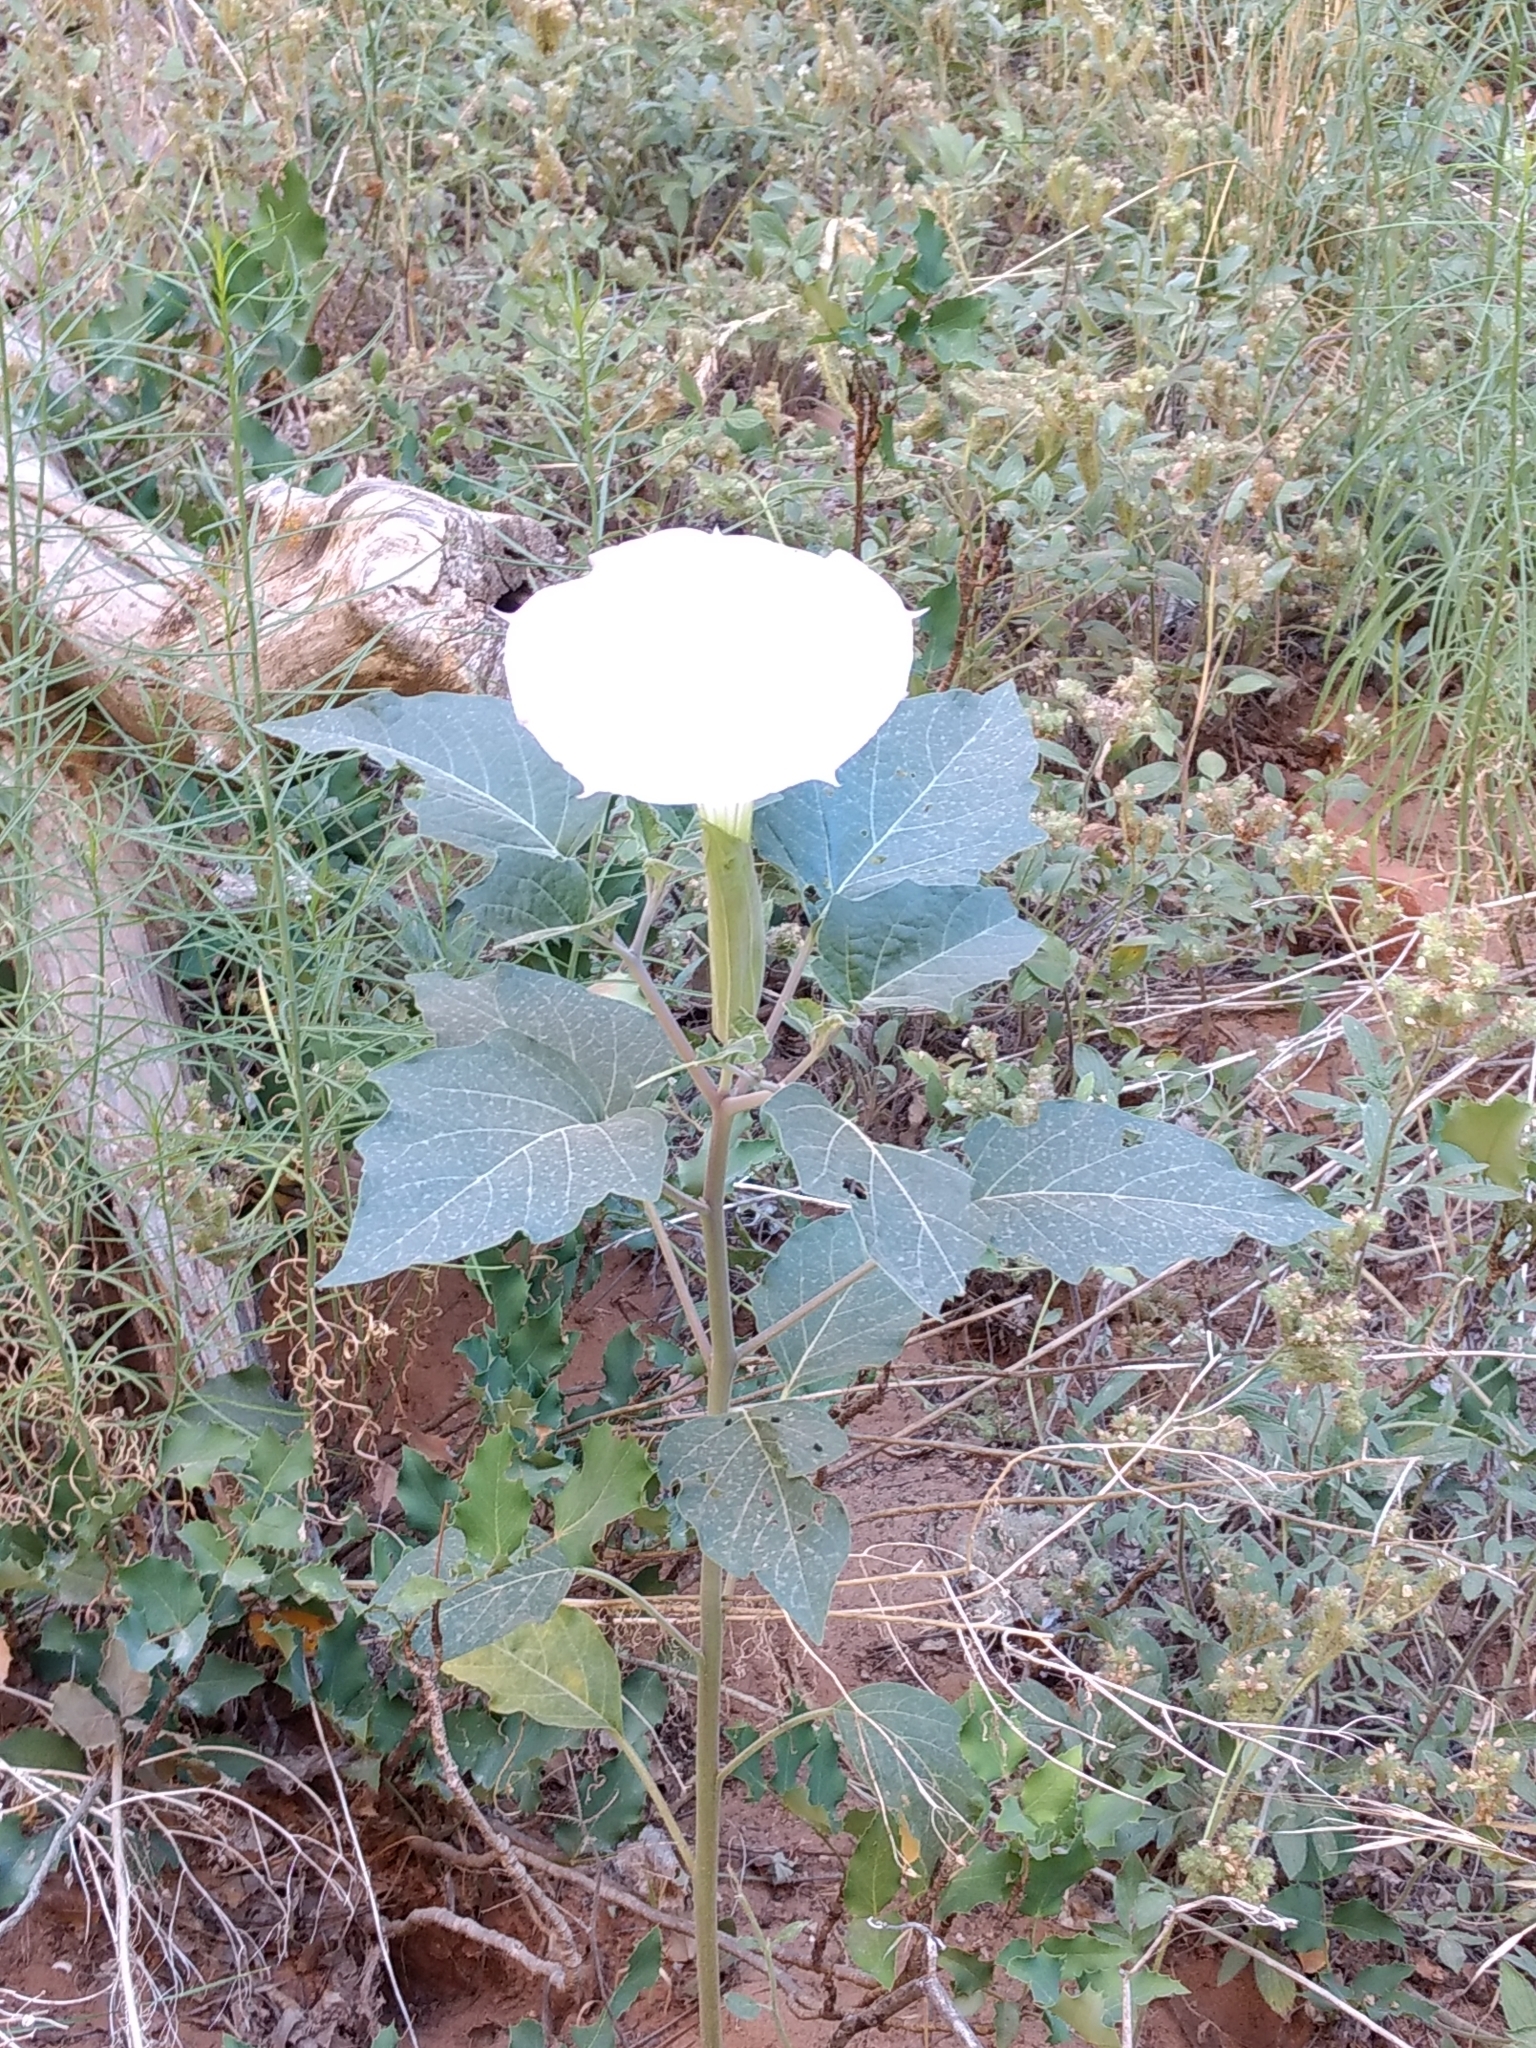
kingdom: Plantae
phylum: Tracheophyta
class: Magnoliopsida
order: Solanales
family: Solanaceae
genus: Datura
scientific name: Datura wrightii
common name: Sacred thorn-apple
